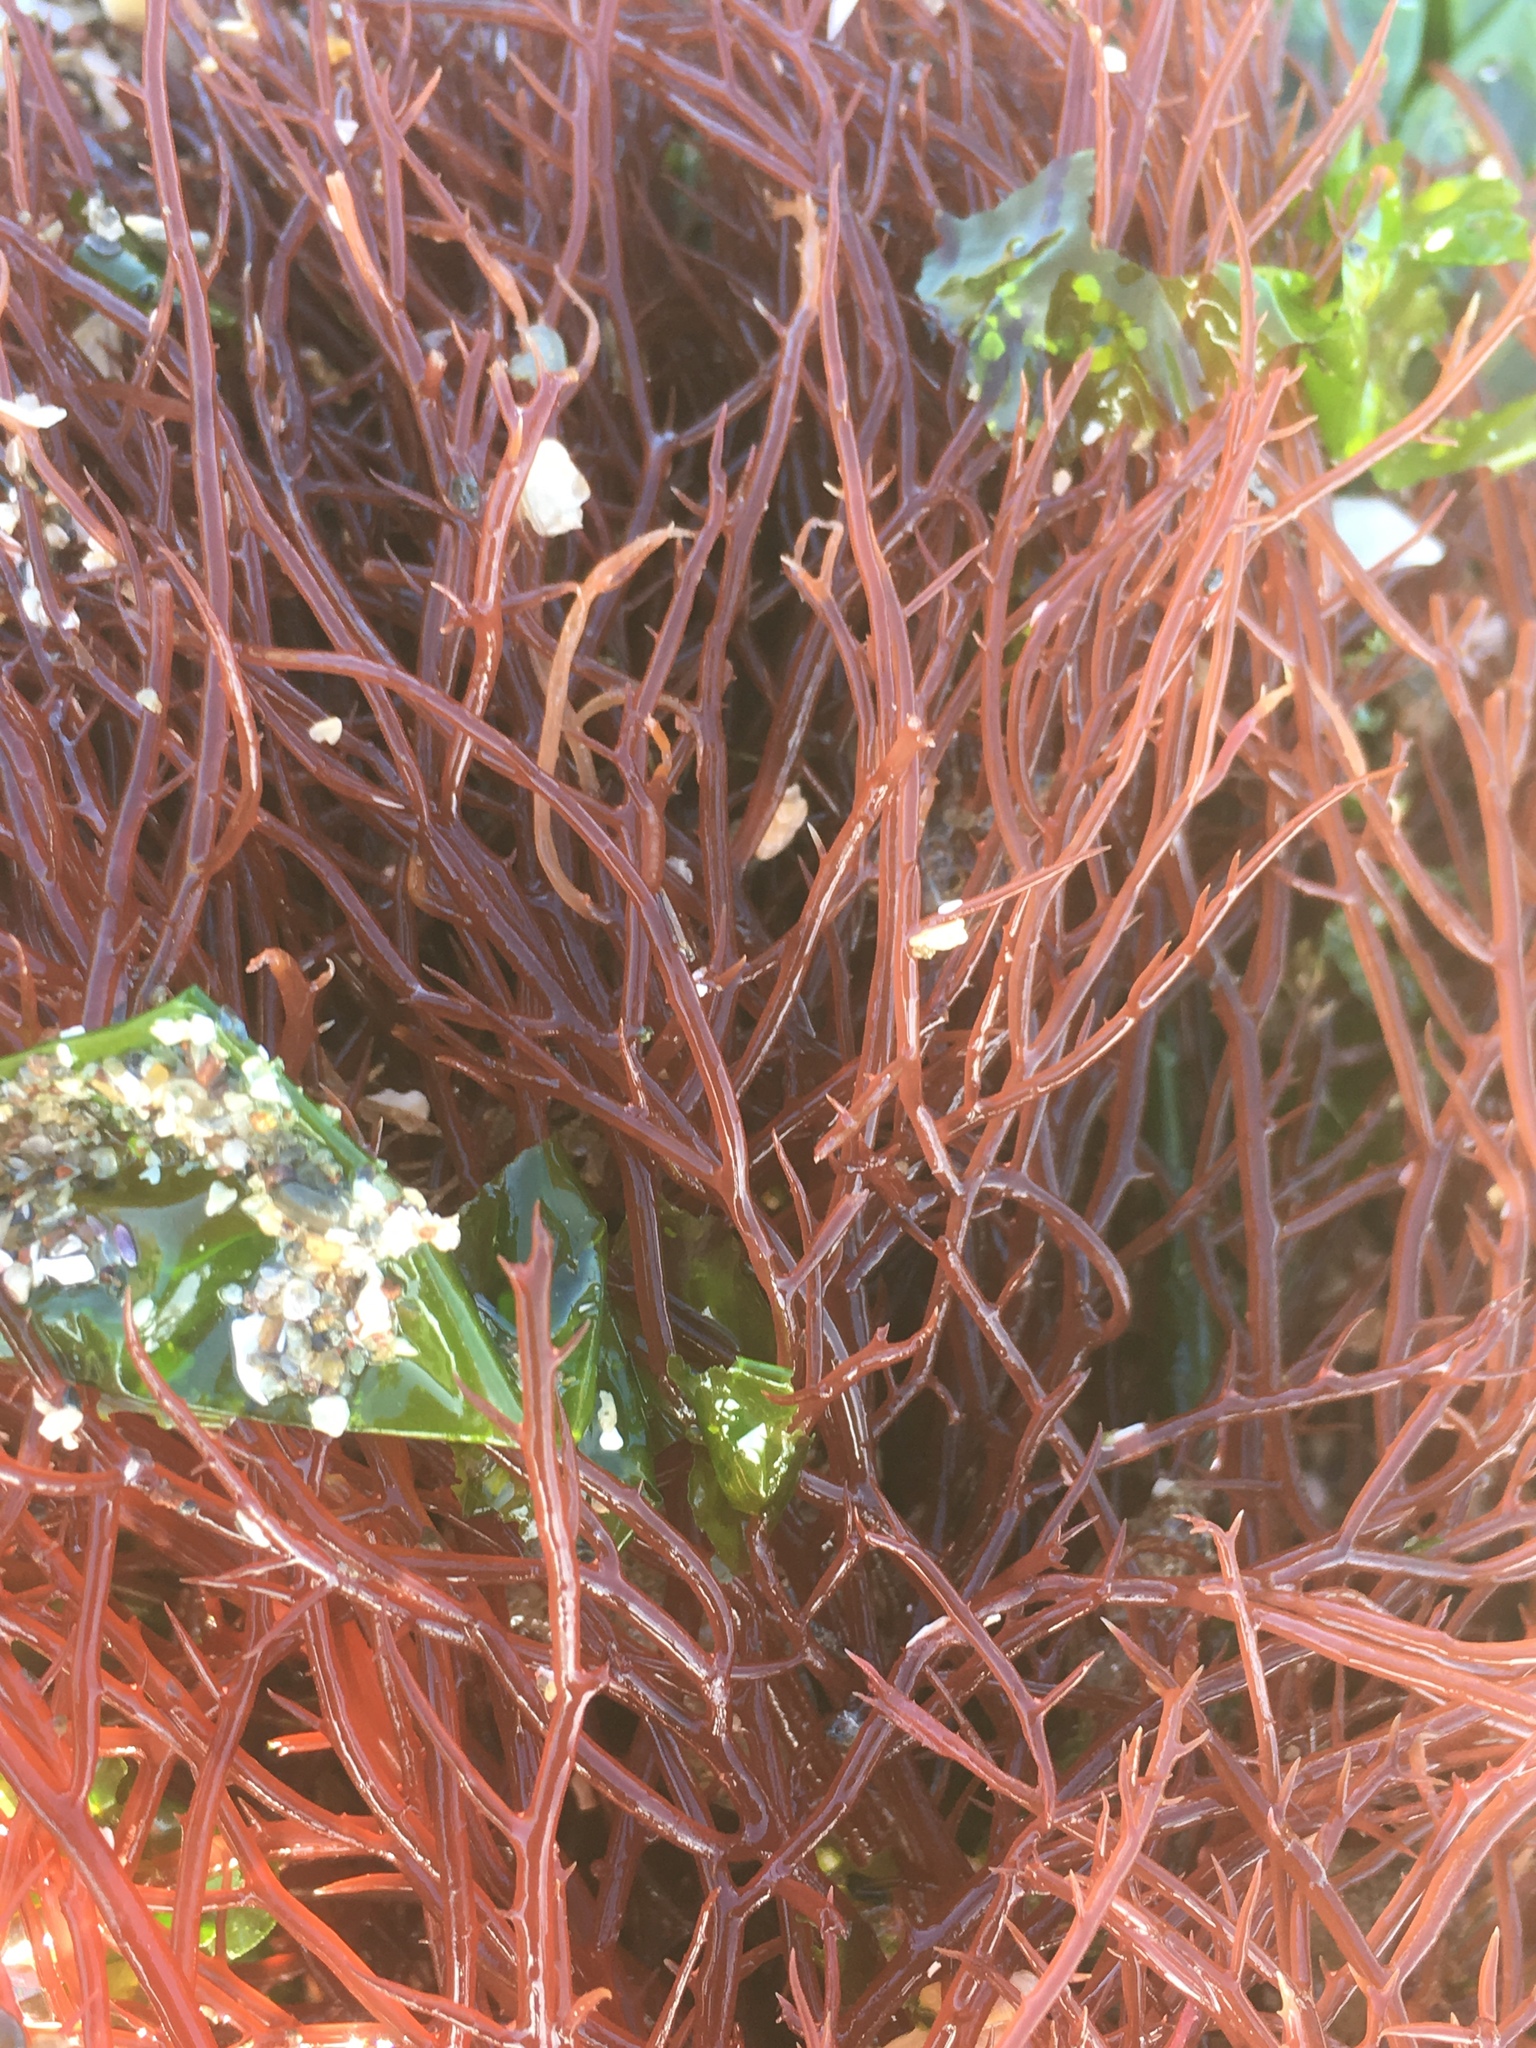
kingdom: Plantae
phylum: Rhodophyta
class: Florideophyceae
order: Gigartinales
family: Solieriaceae
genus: Sarcodiotheca
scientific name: Sarcodiotheca gaudichaudii
